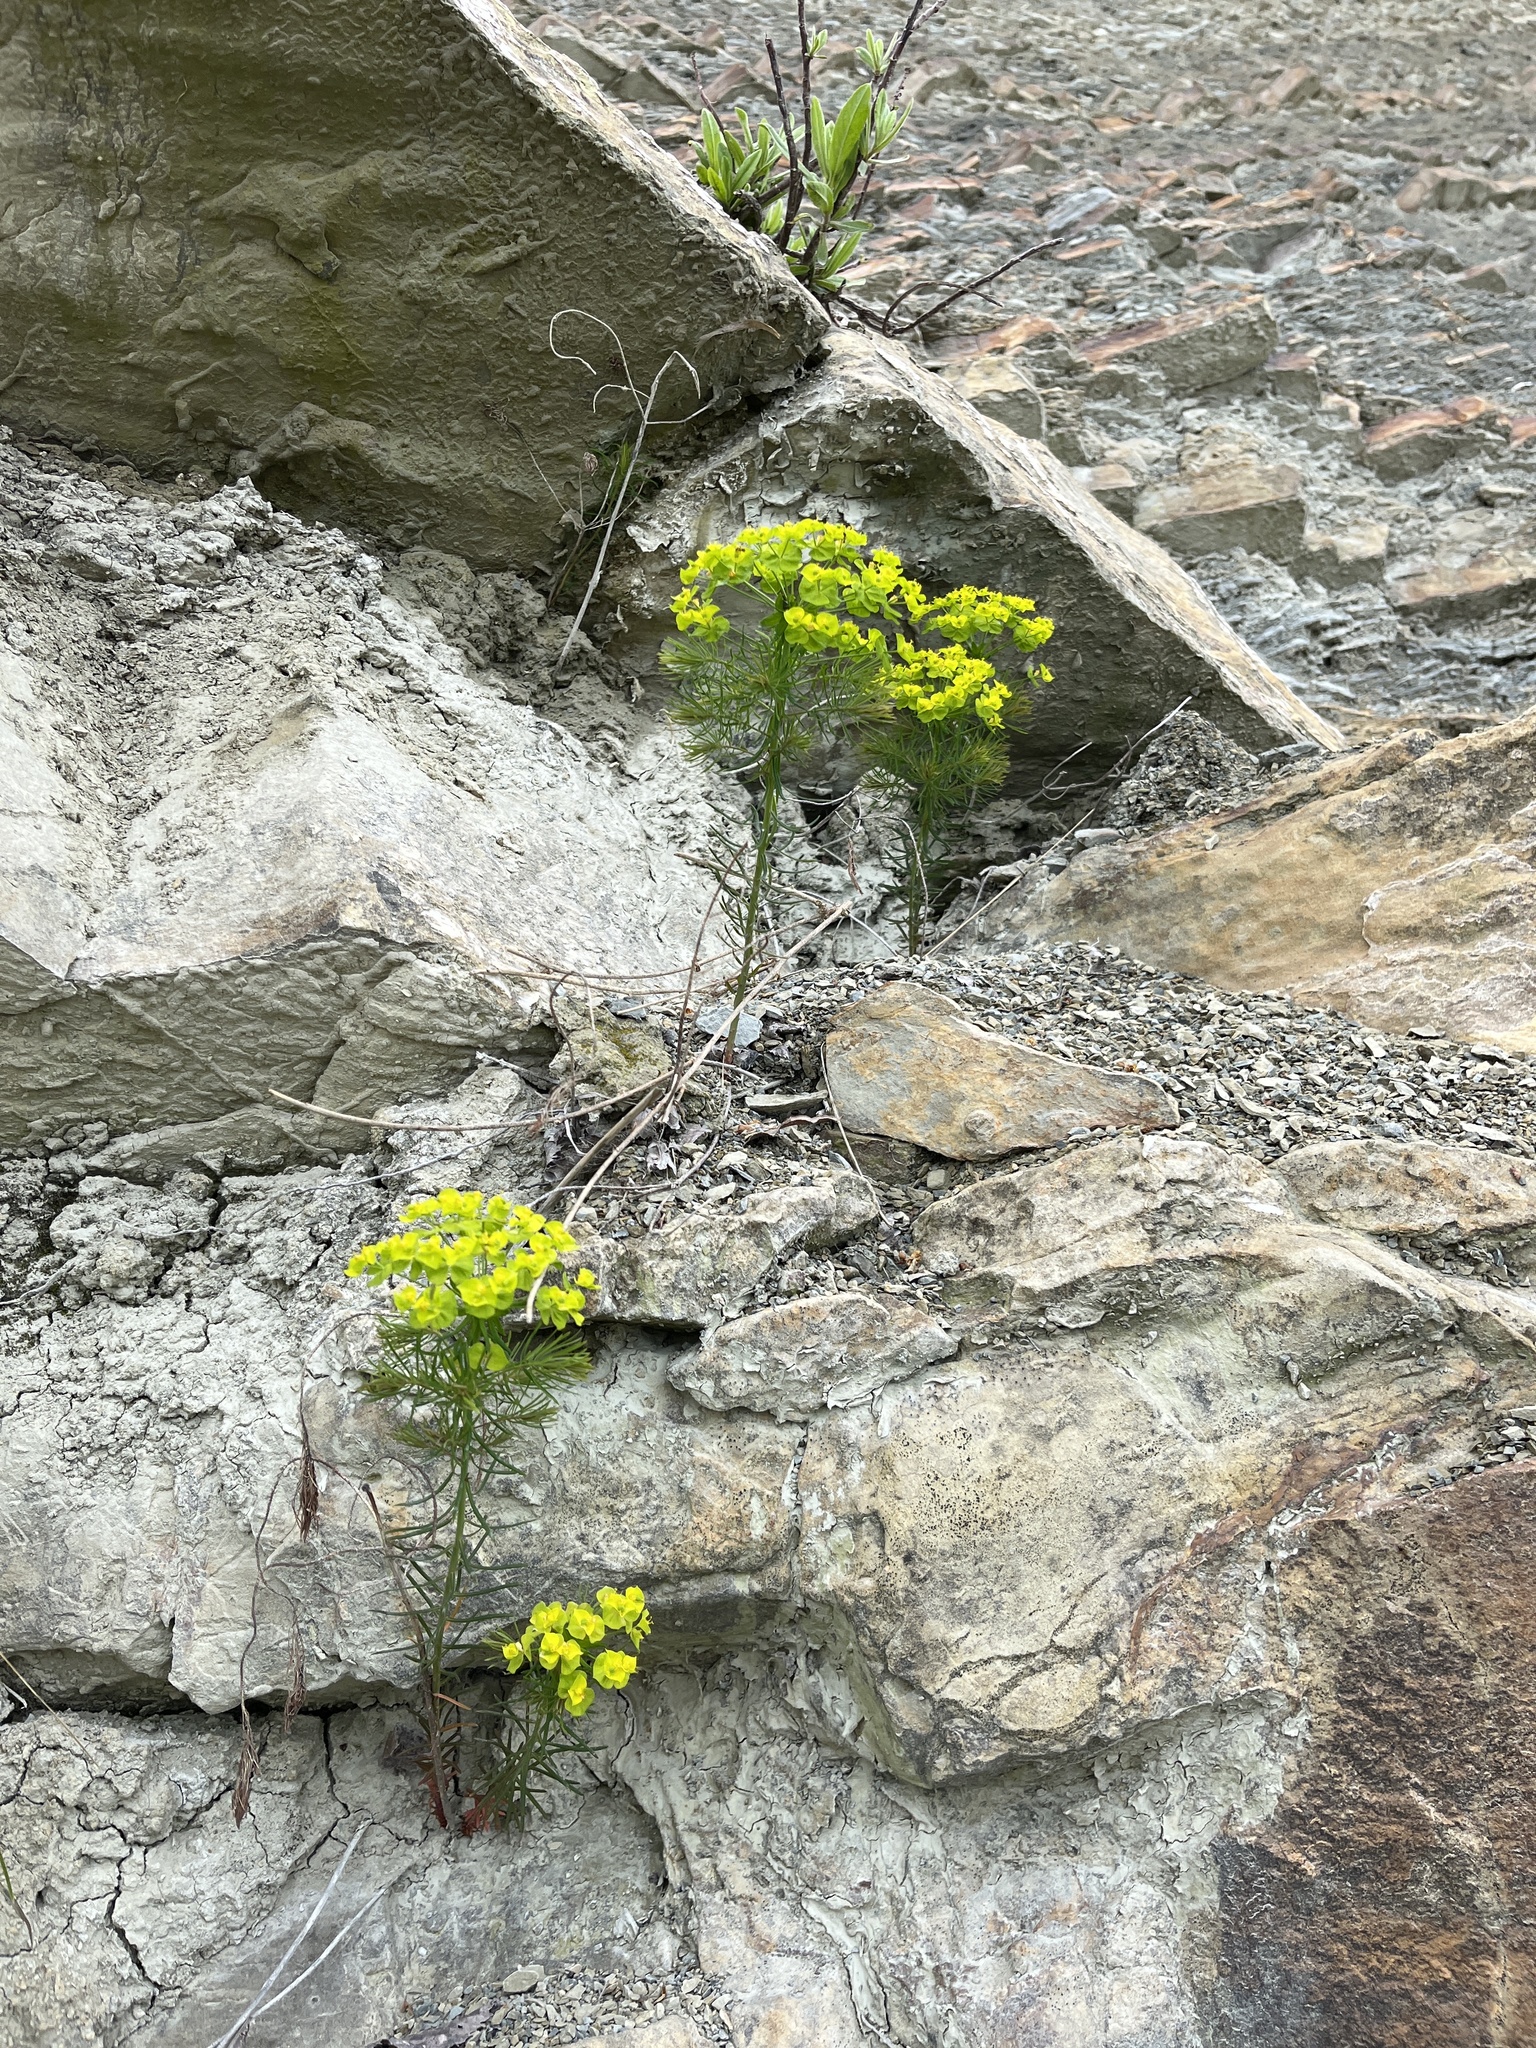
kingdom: Plantae
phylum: Tracheophyta
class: Magnoliopsida
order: Malpighiales
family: Euphorbiaceae
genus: Euphorbia
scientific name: Euphorbia cyparissias
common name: Cypress spurge
